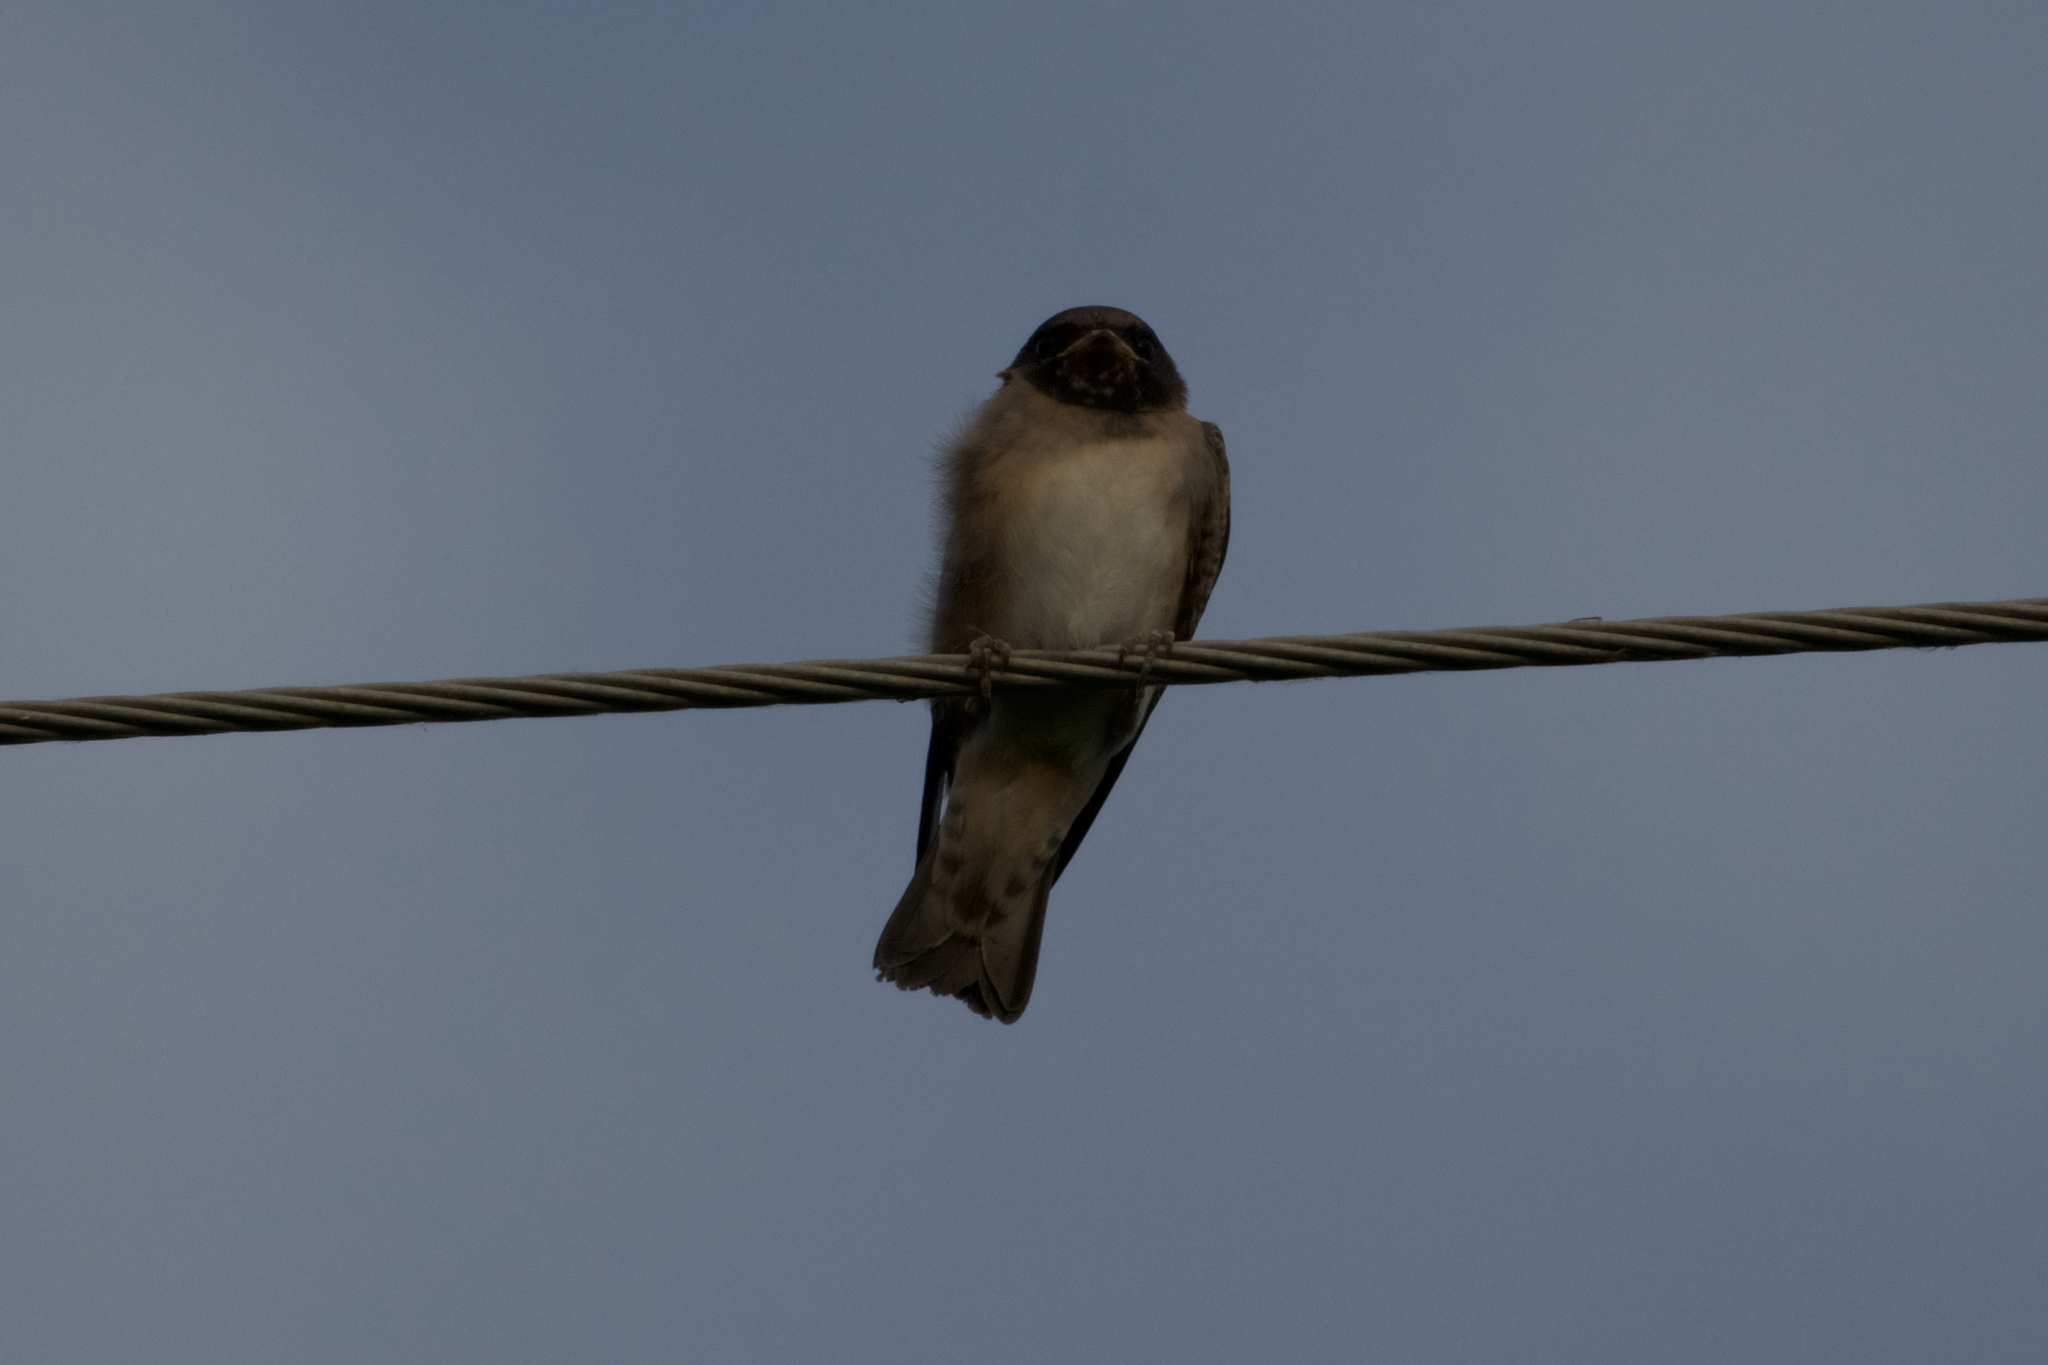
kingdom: Animalia
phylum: Chordata
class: Aves
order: Passeriformes
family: Hirundinidae
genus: Petrochelidon
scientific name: Petrochelidon pyrrhonota
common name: American cliff swallow
